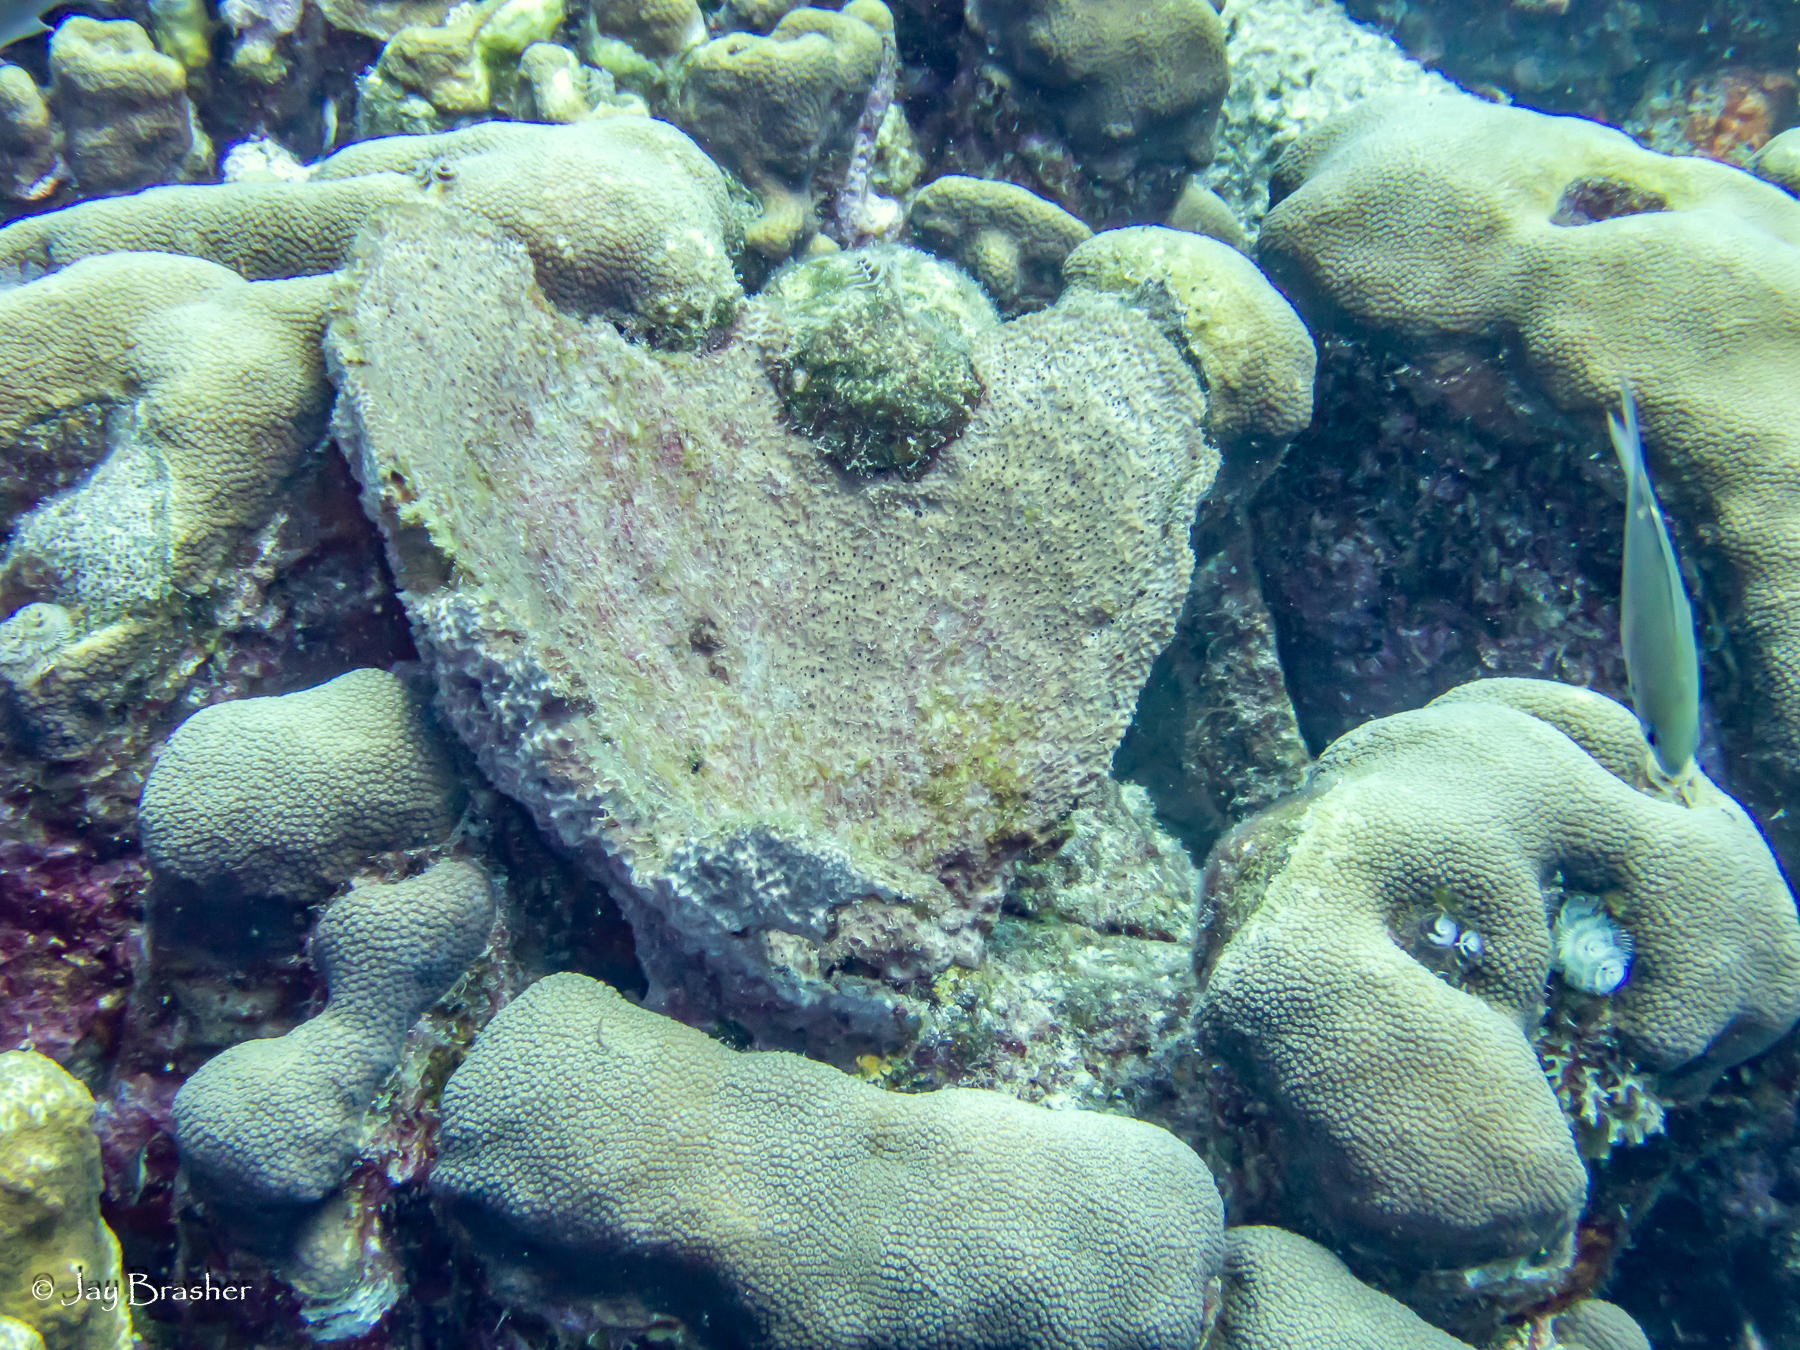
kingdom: Animalia
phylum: Porifera
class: Demospongiae
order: Dictyoceratida
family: Irciniidae
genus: Ircinia
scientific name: Ircinia campana
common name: Vase sponge
